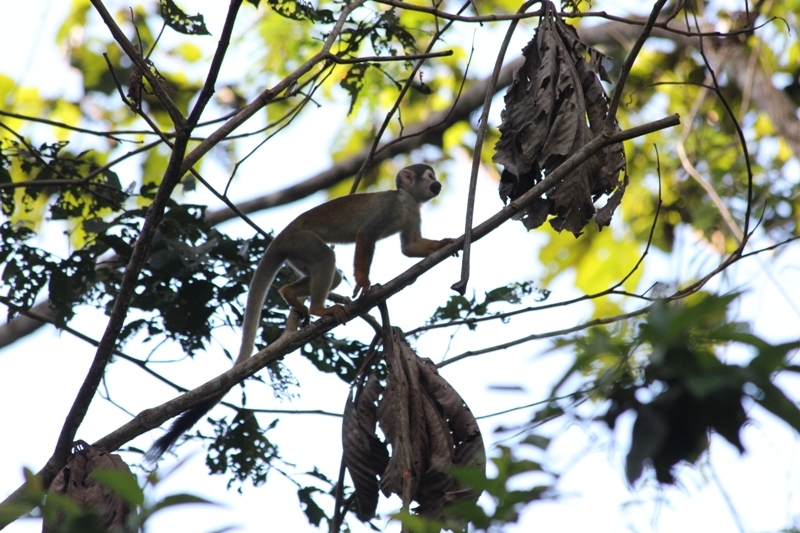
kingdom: Animalia
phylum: Chordata
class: Mammalia
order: Primates
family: Cebidae
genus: Saimiri
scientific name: Saimiri cassiquiarensis
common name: Humboldt’s squirrel monkey
